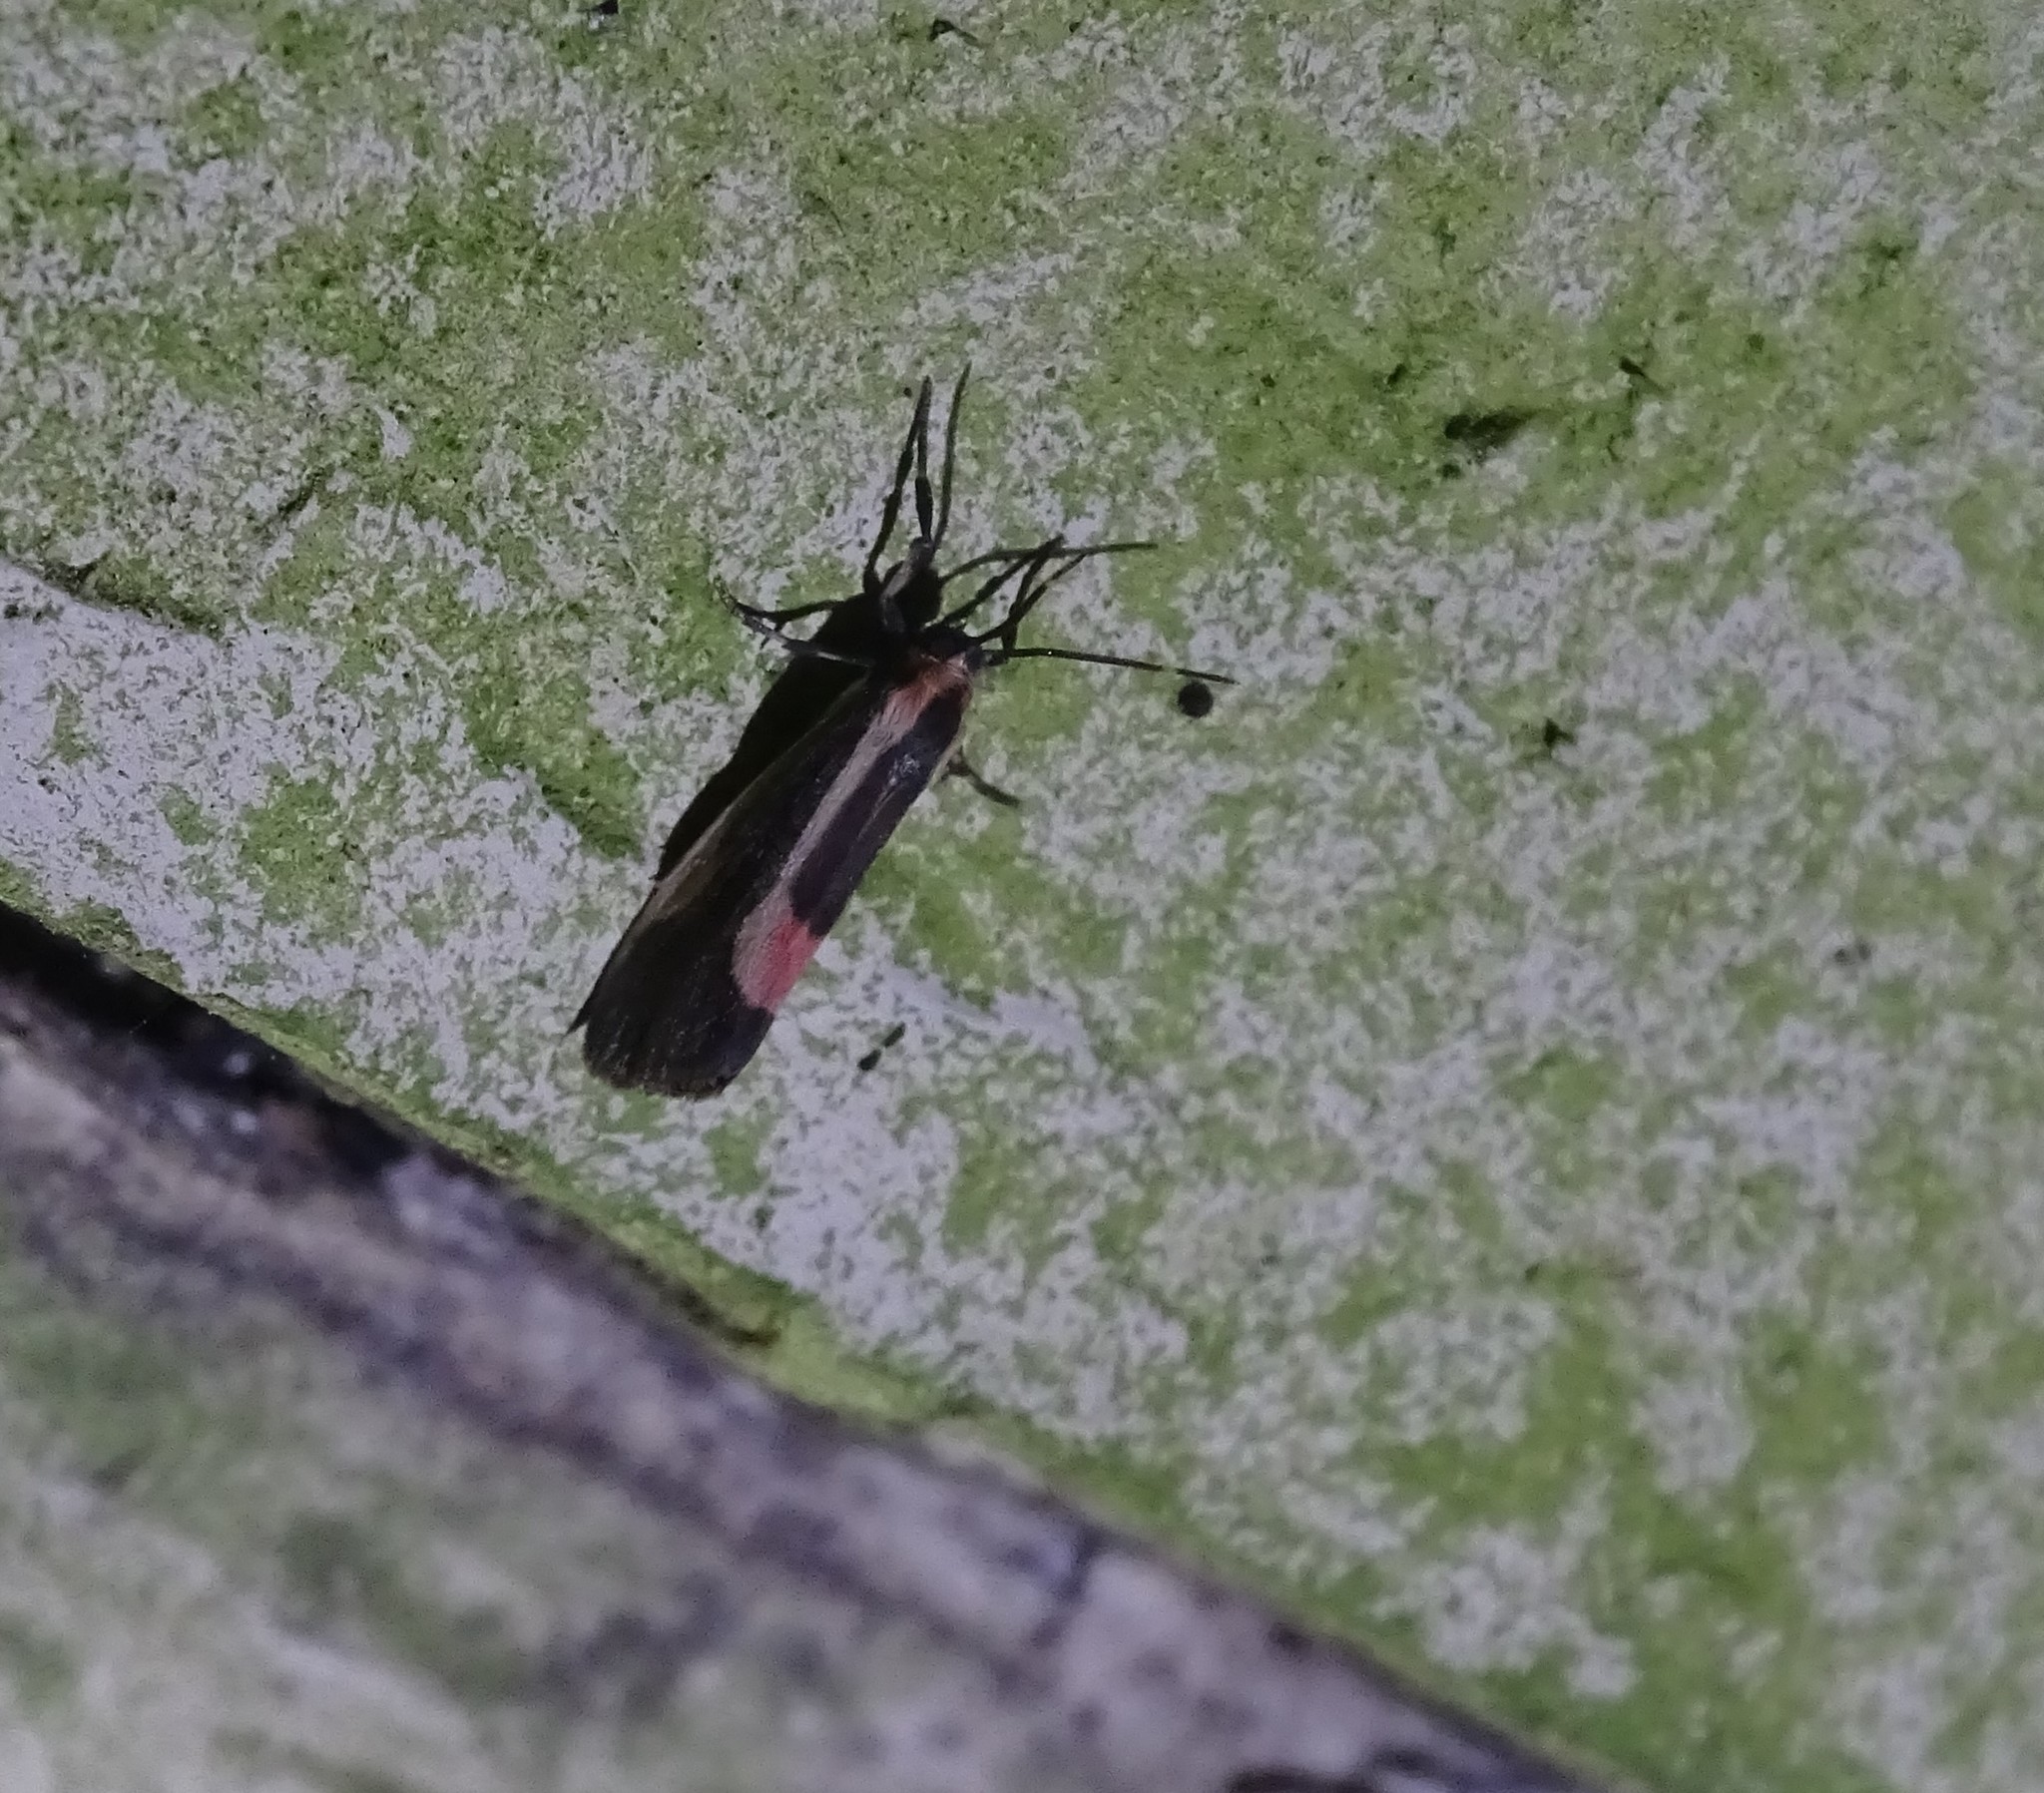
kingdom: Animalia
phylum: Arthropoda
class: Insecta
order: Lepidoptera
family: Erebidae
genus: Cisthene
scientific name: Cisthene subjecta
